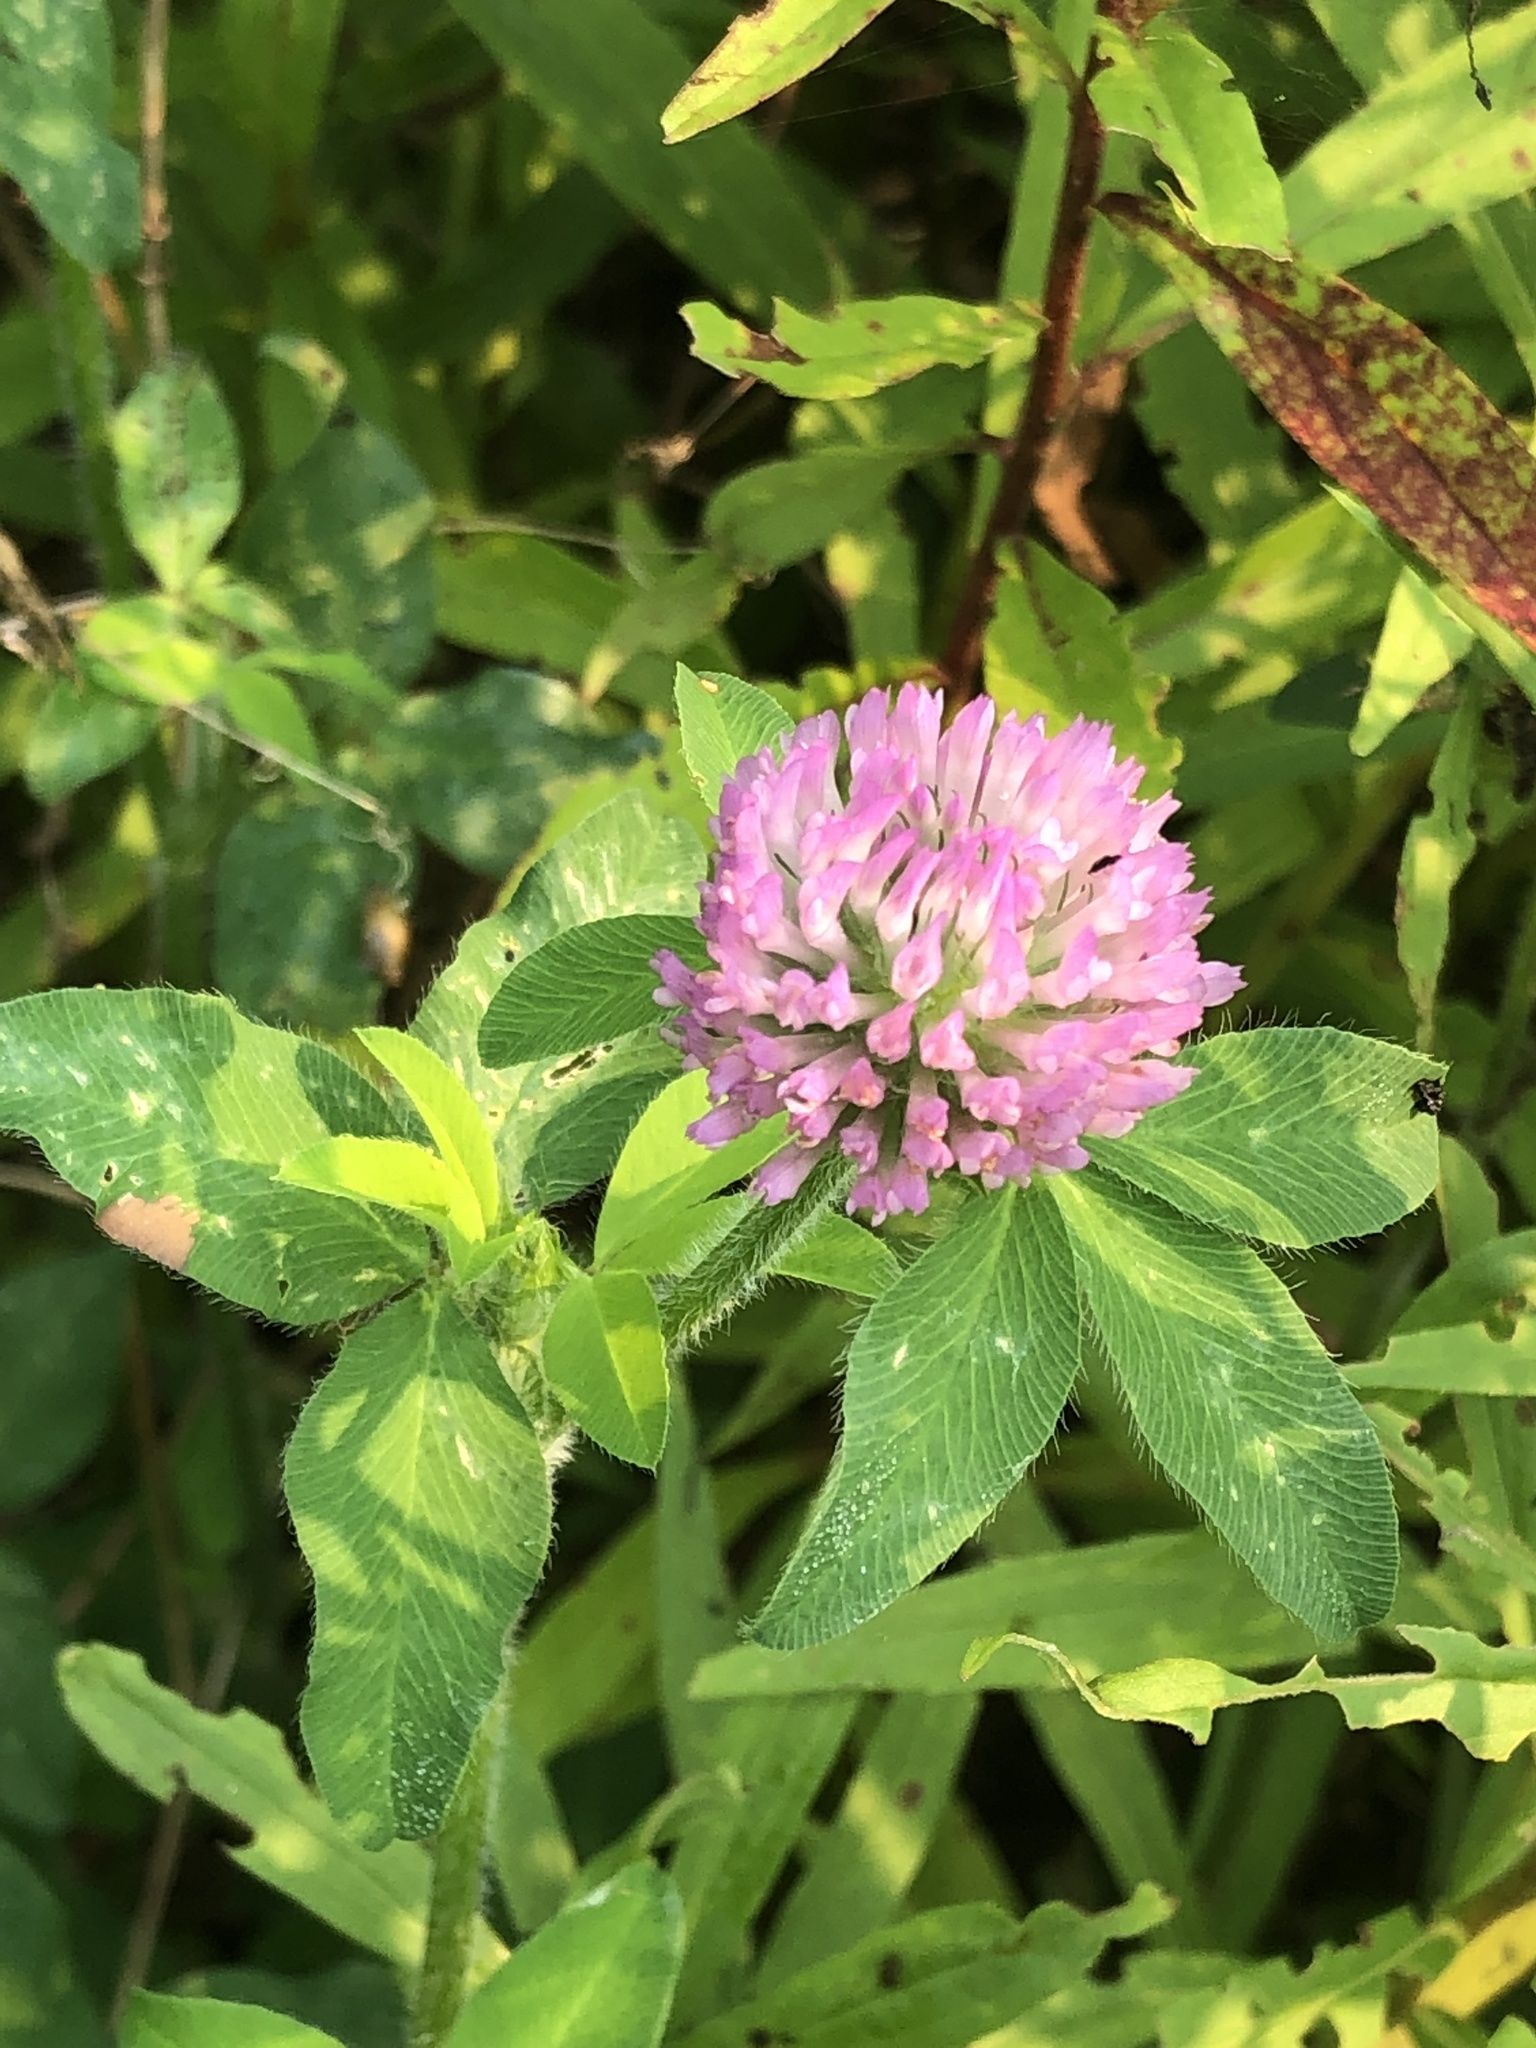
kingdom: Plantae
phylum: Tracheophyta
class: Magnoliopsida
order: Fabales
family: Fabaceae
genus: Trifolium
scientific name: Trifolium pratense
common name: Red clover
